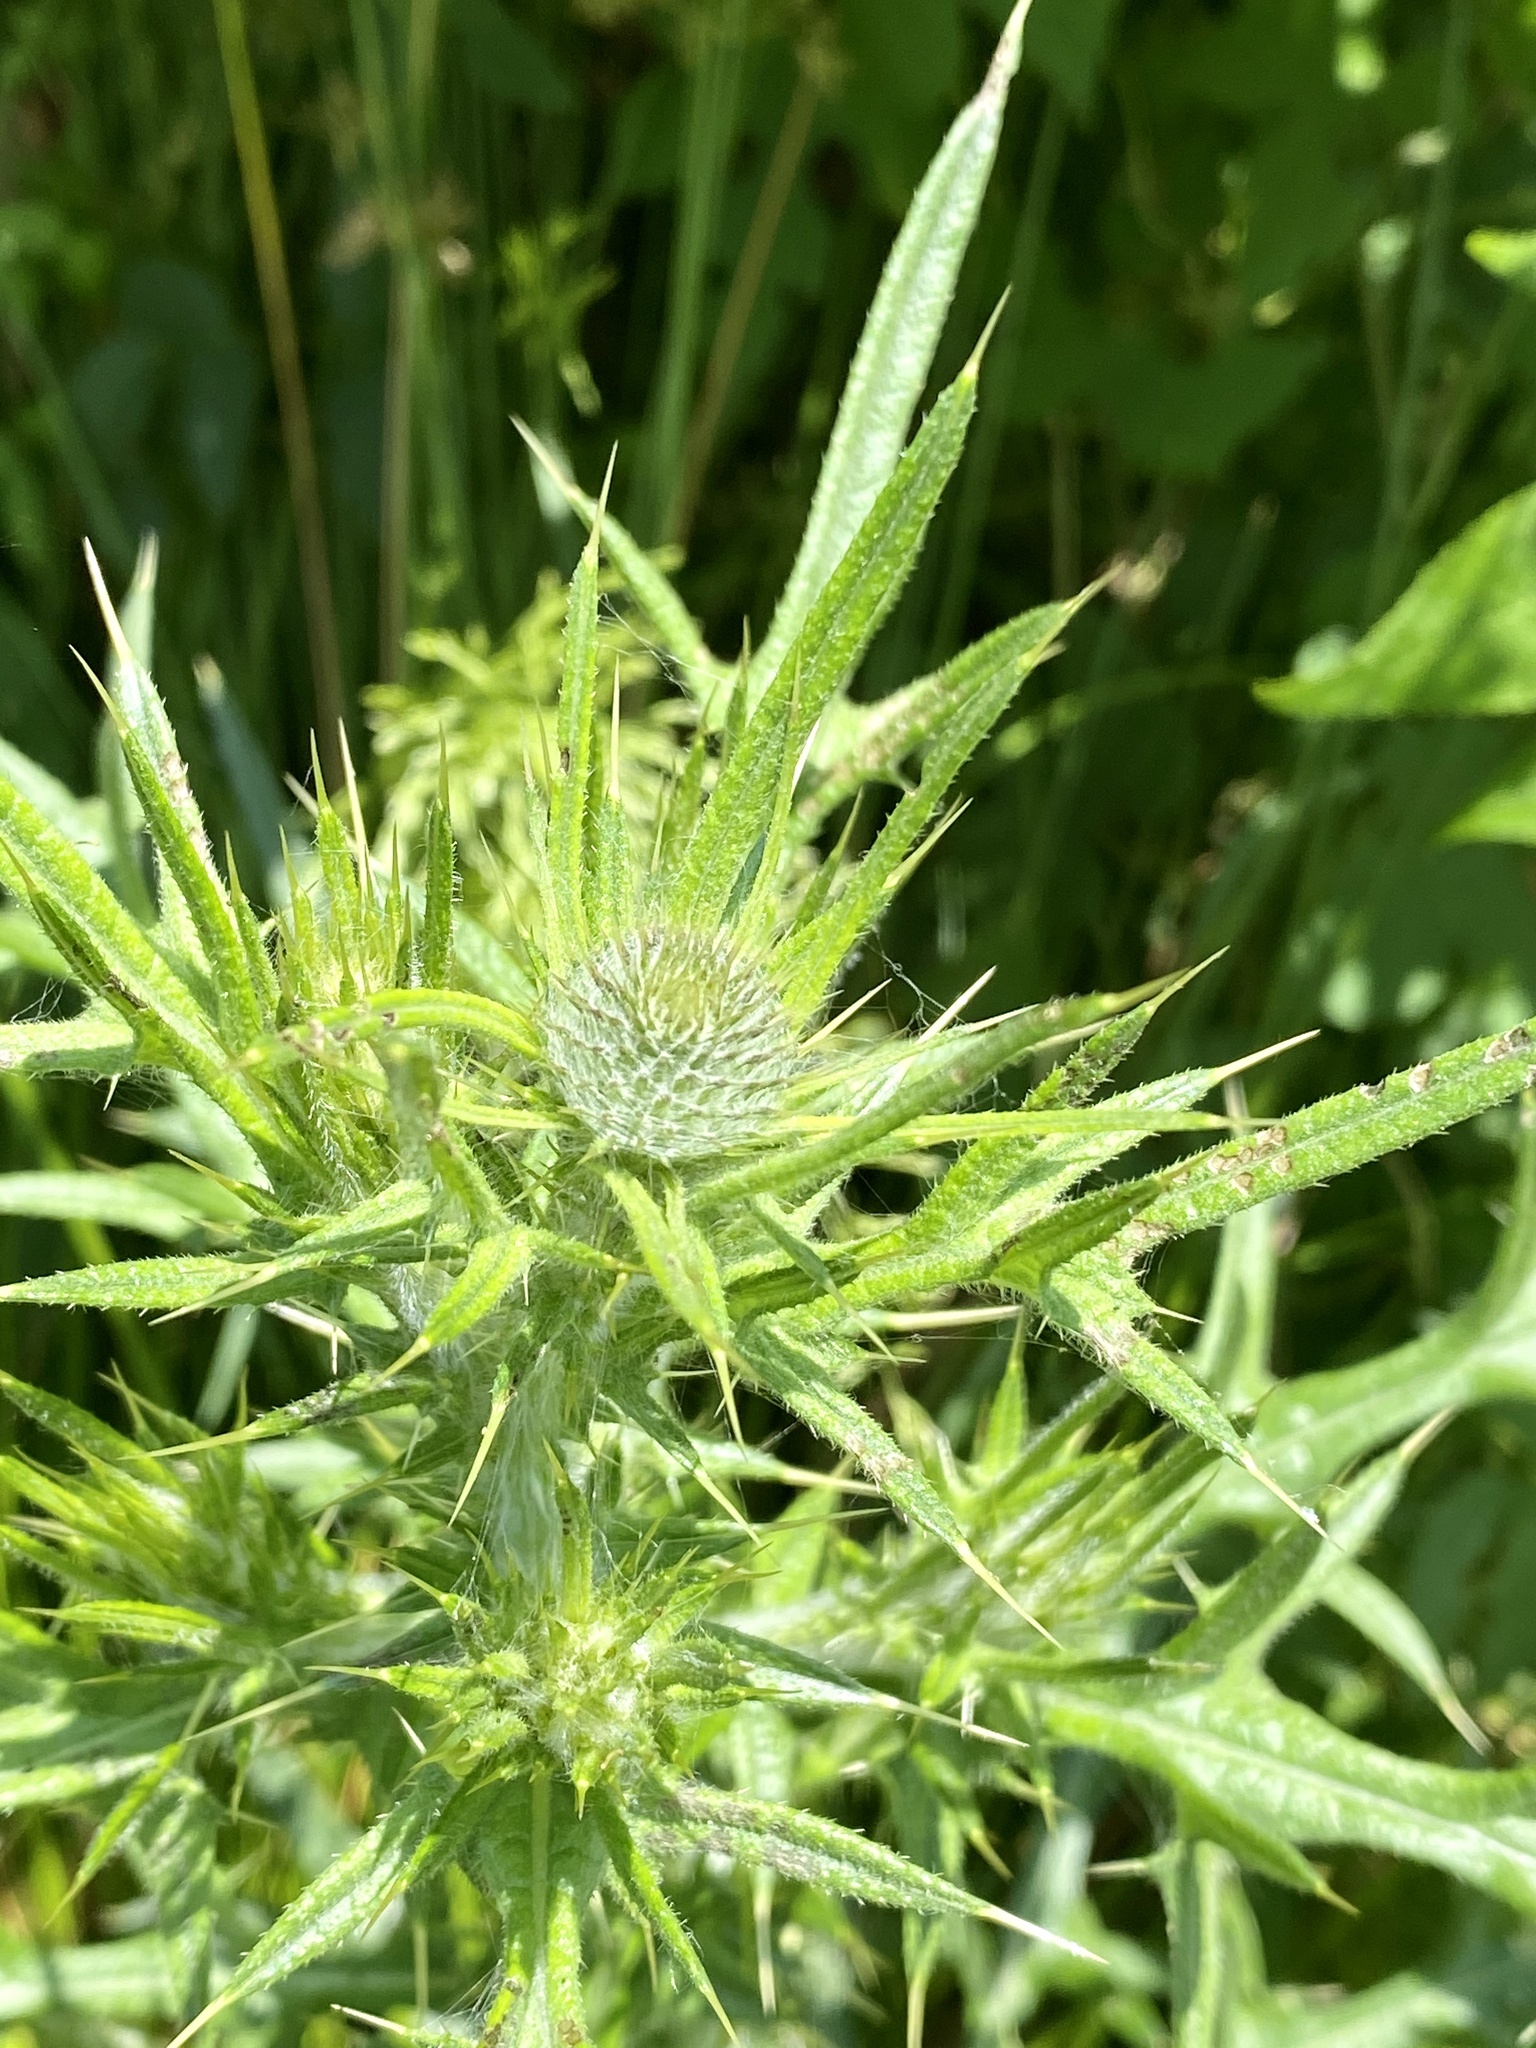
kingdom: Plantae
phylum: Tracheophyta
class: Magnoliopsida
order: Asterales
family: Asteraceae
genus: Cirsium
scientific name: Cirsium vulgare
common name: Bull thistle
